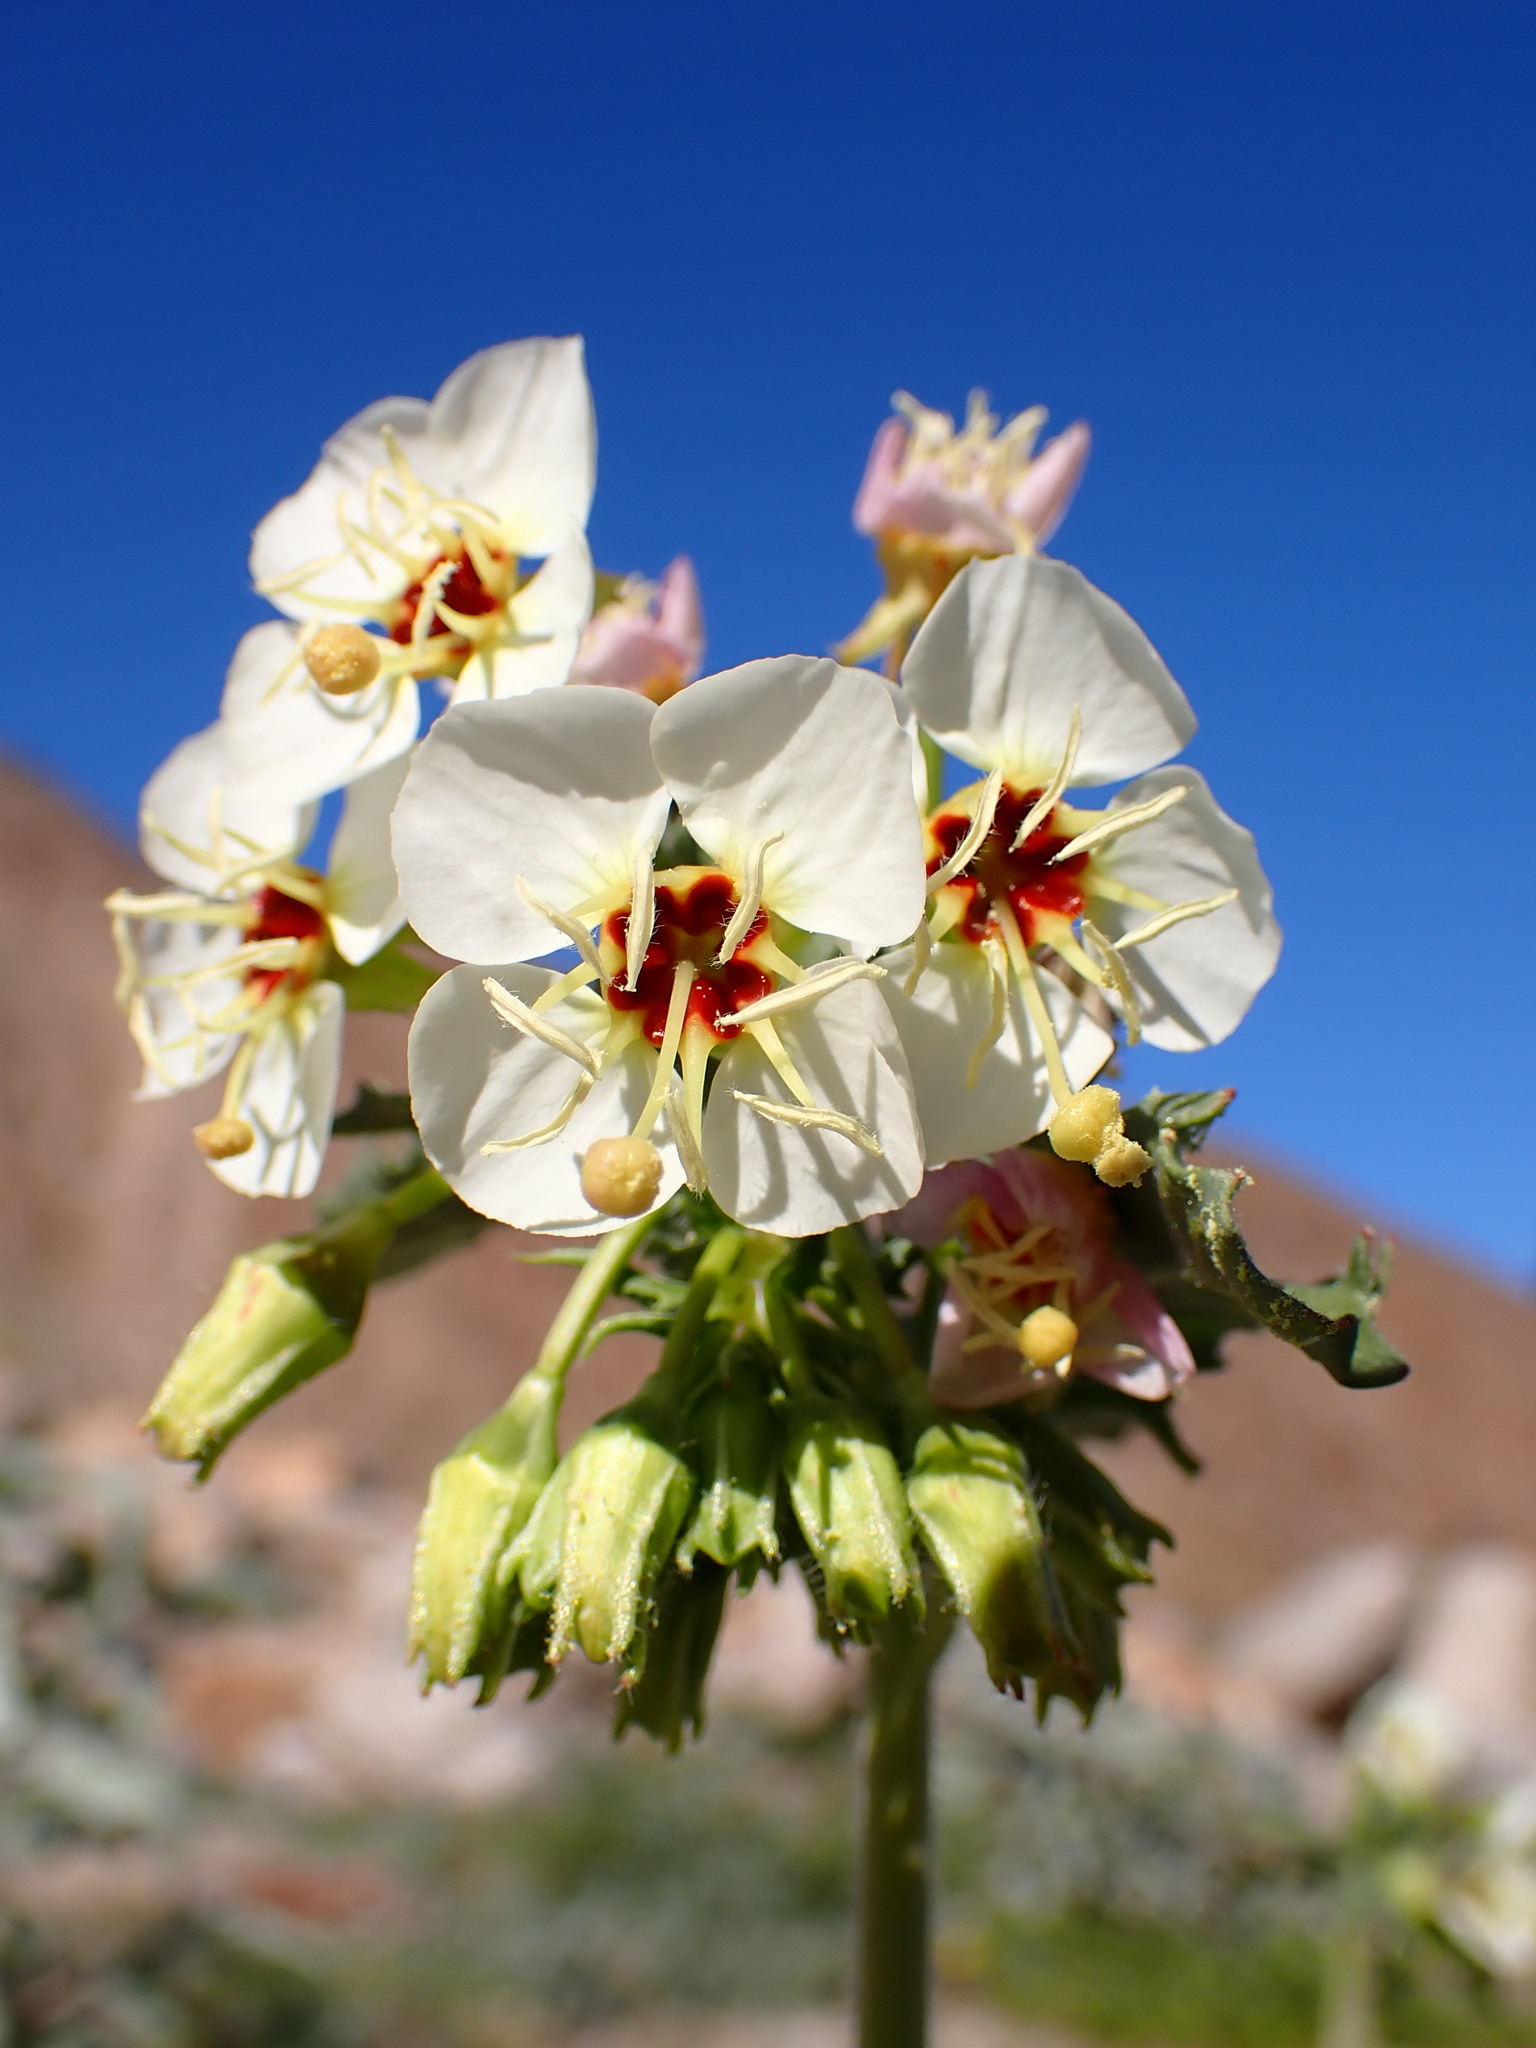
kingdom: Plantae
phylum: Tracheophyta
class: Magnoliopsida
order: Myrtales
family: Onagraceae
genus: Chylismia
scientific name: Chylismia claviformis
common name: Browneyes
